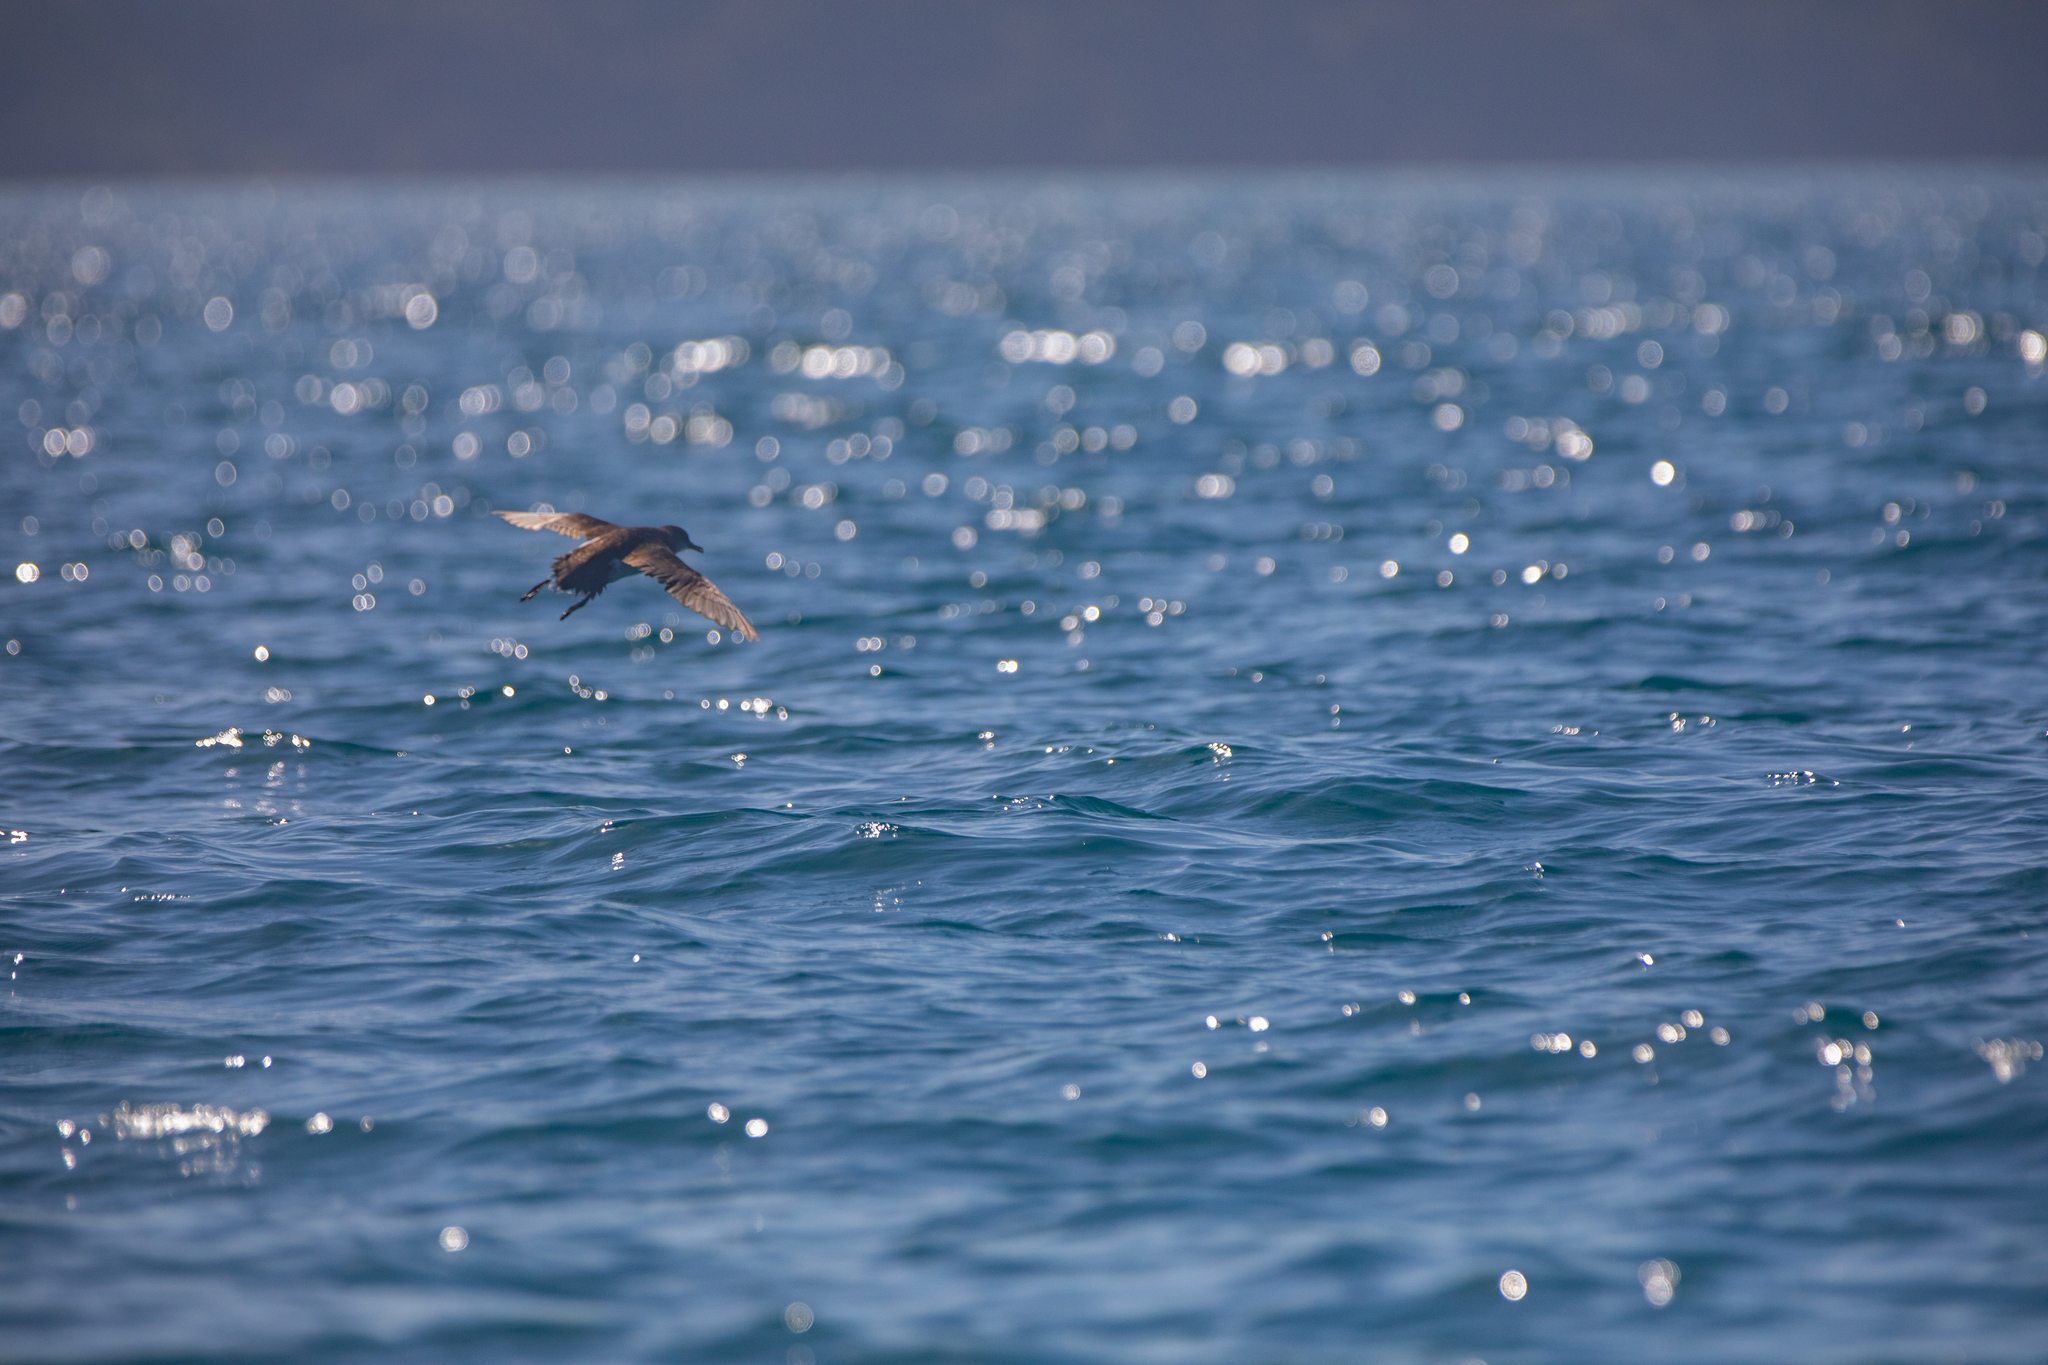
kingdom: Animalia
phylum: Chordata
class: Aves
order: Procellariiformes
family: Procellariidae
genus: Puffinus
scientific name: Puffinus gavia
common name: Fluttering shearwater
